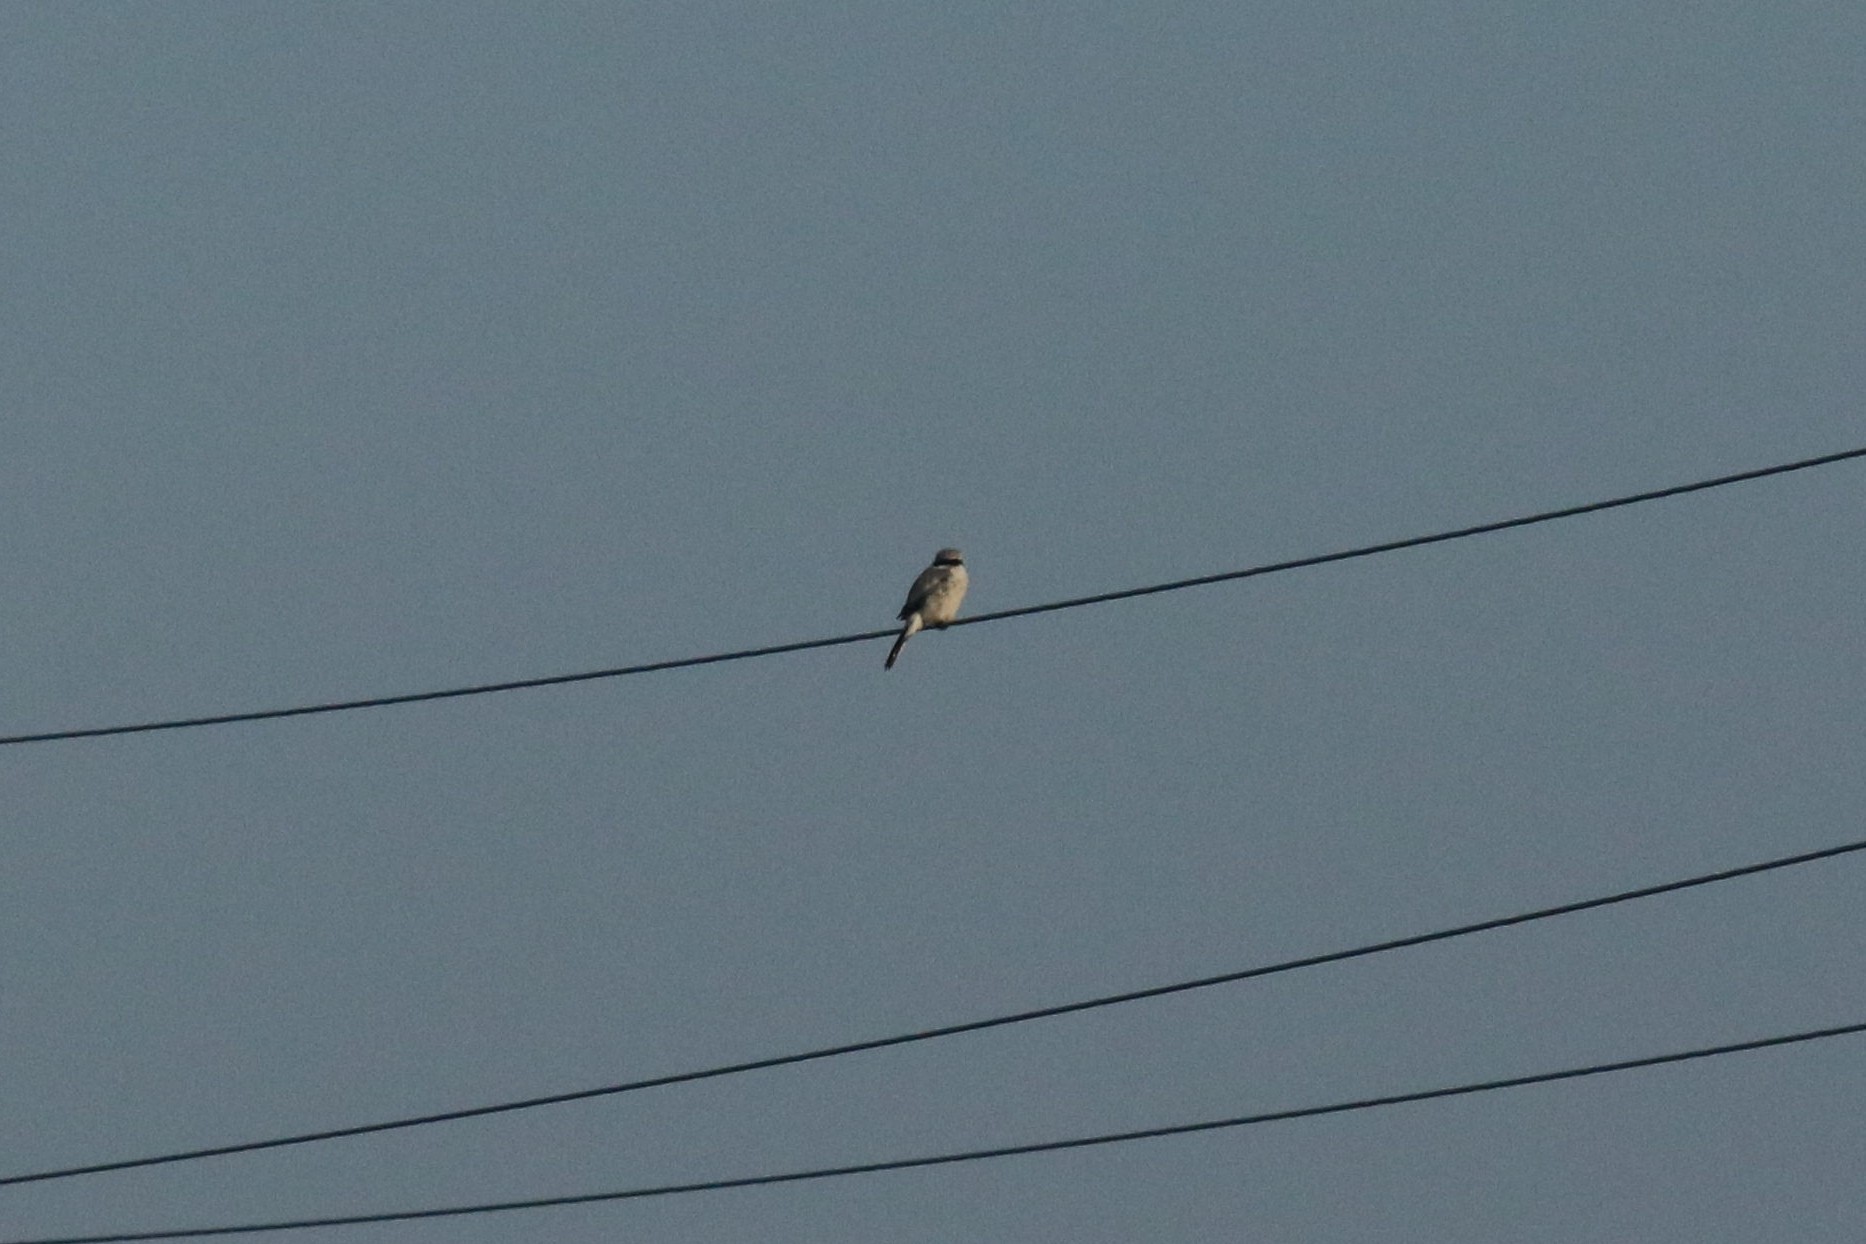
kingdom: Animalia
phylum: Chordata
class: Aves
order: Passeriformes
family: Laniidae
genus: Lanius
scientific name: Lanius excubitor
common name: Great grey shrike
